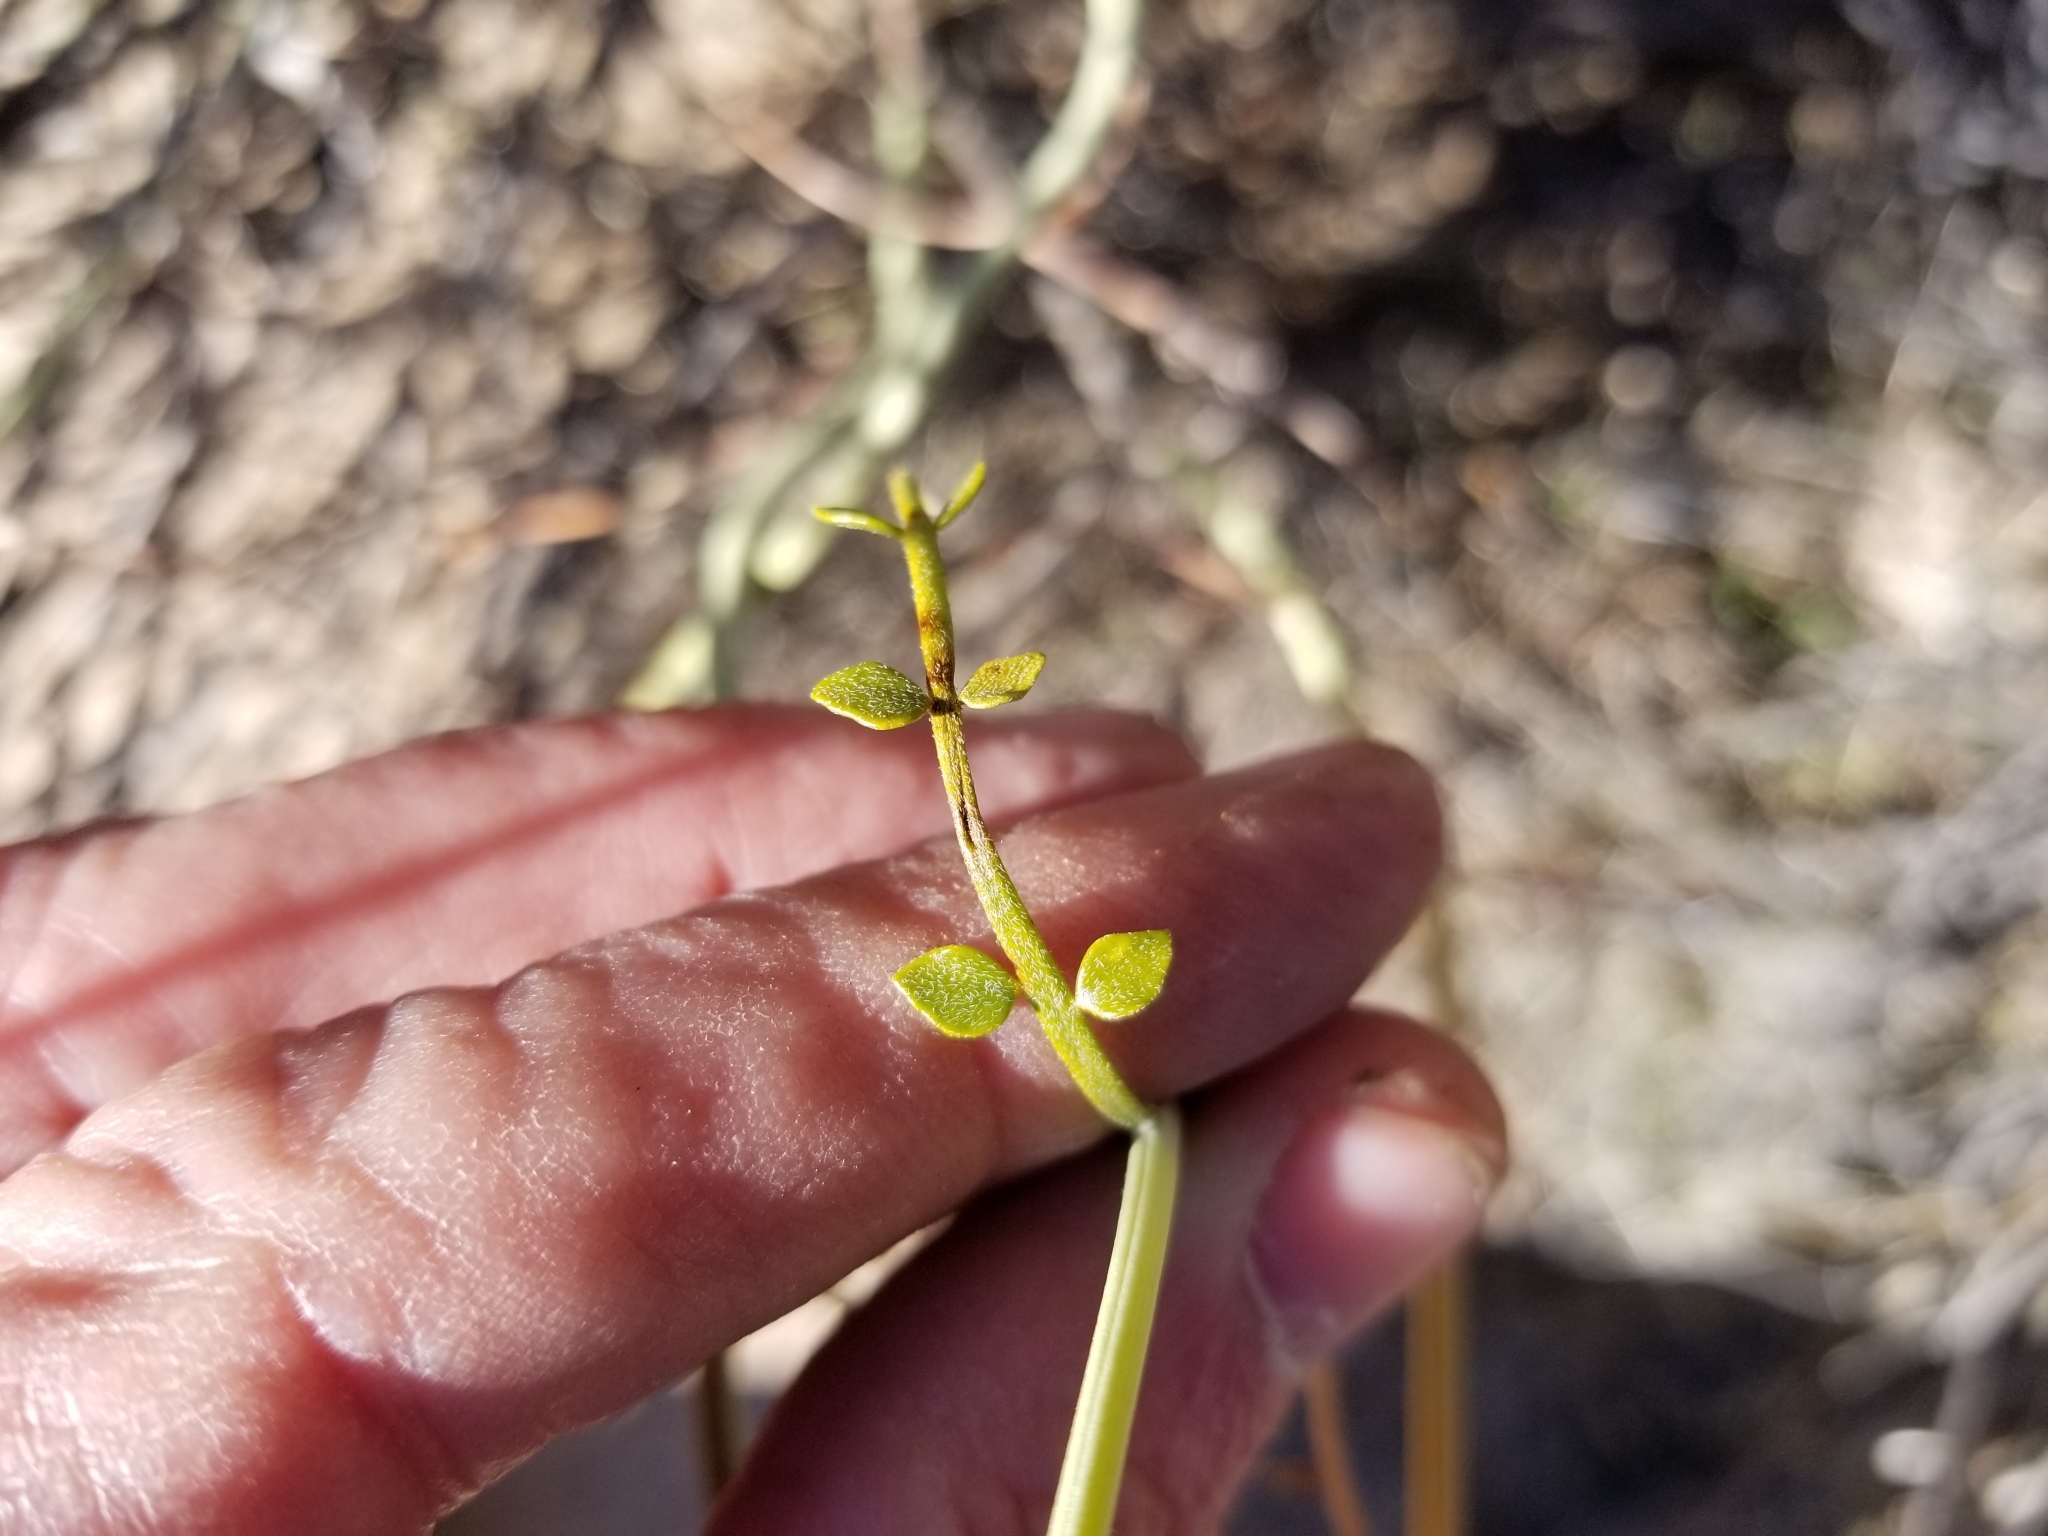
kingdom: Plantae
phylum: Tracheophyta
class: Magnoliopsida
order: Fabales
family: Fabaceae
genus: Senna
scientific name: Senna armata
